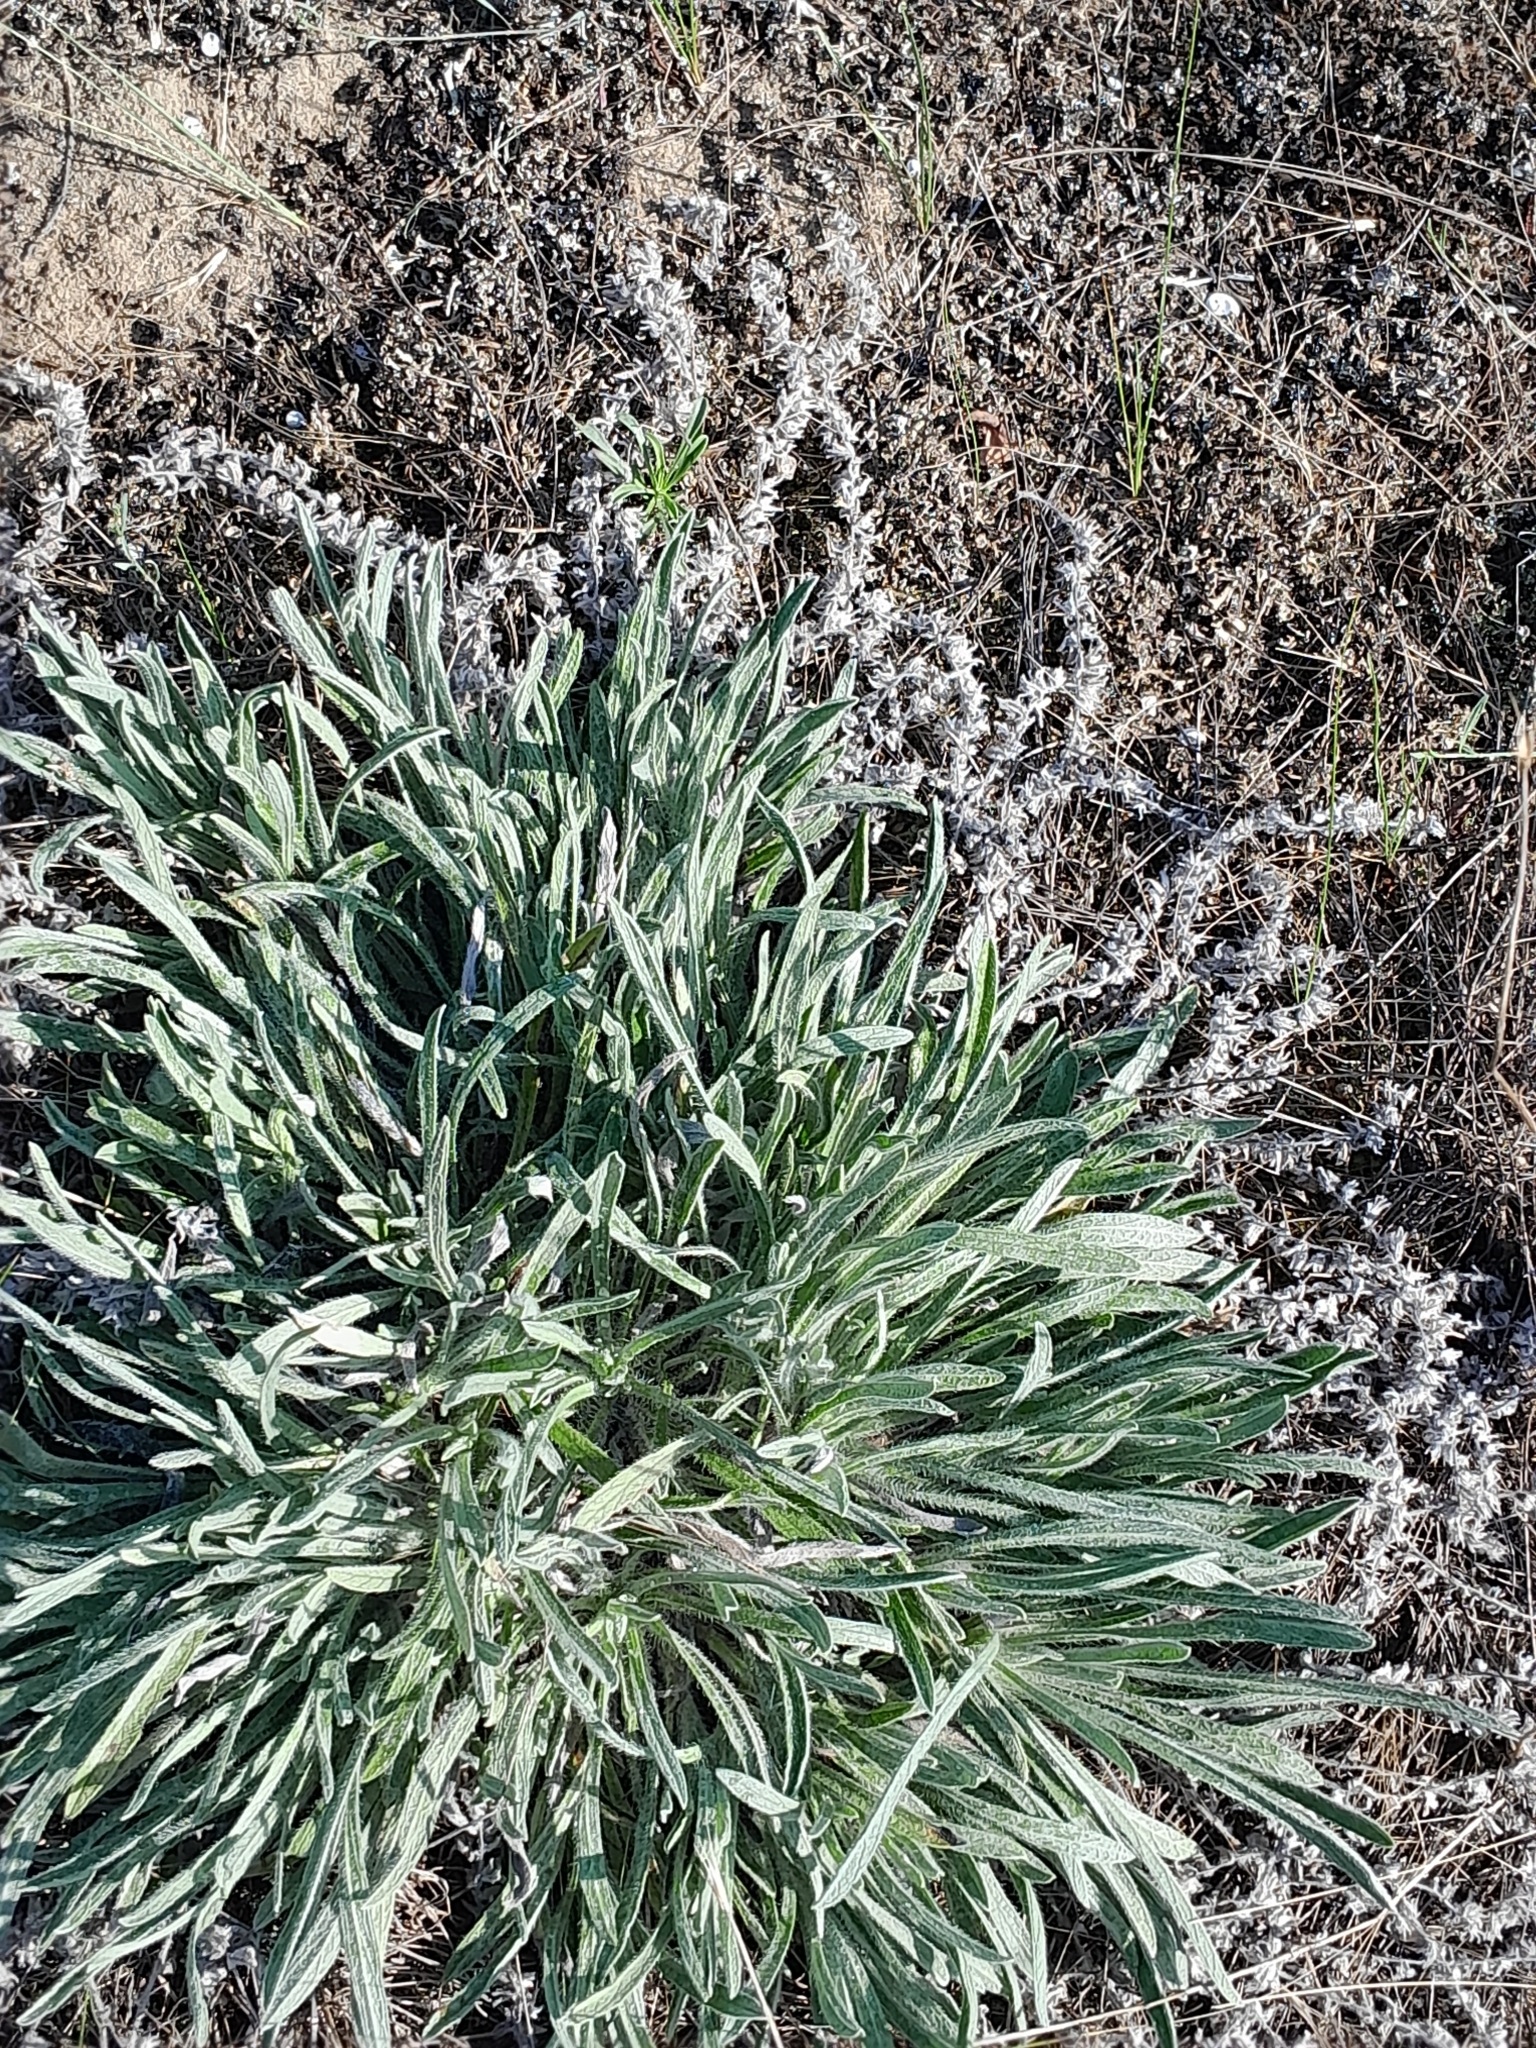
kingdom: Plantae
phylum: Tracheophyta
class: Magnoliopsida
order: Boraginales
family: Boraginaceae
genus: Alkanna
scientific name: Alkanna tinctoria
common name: Dyer's-alkanet
